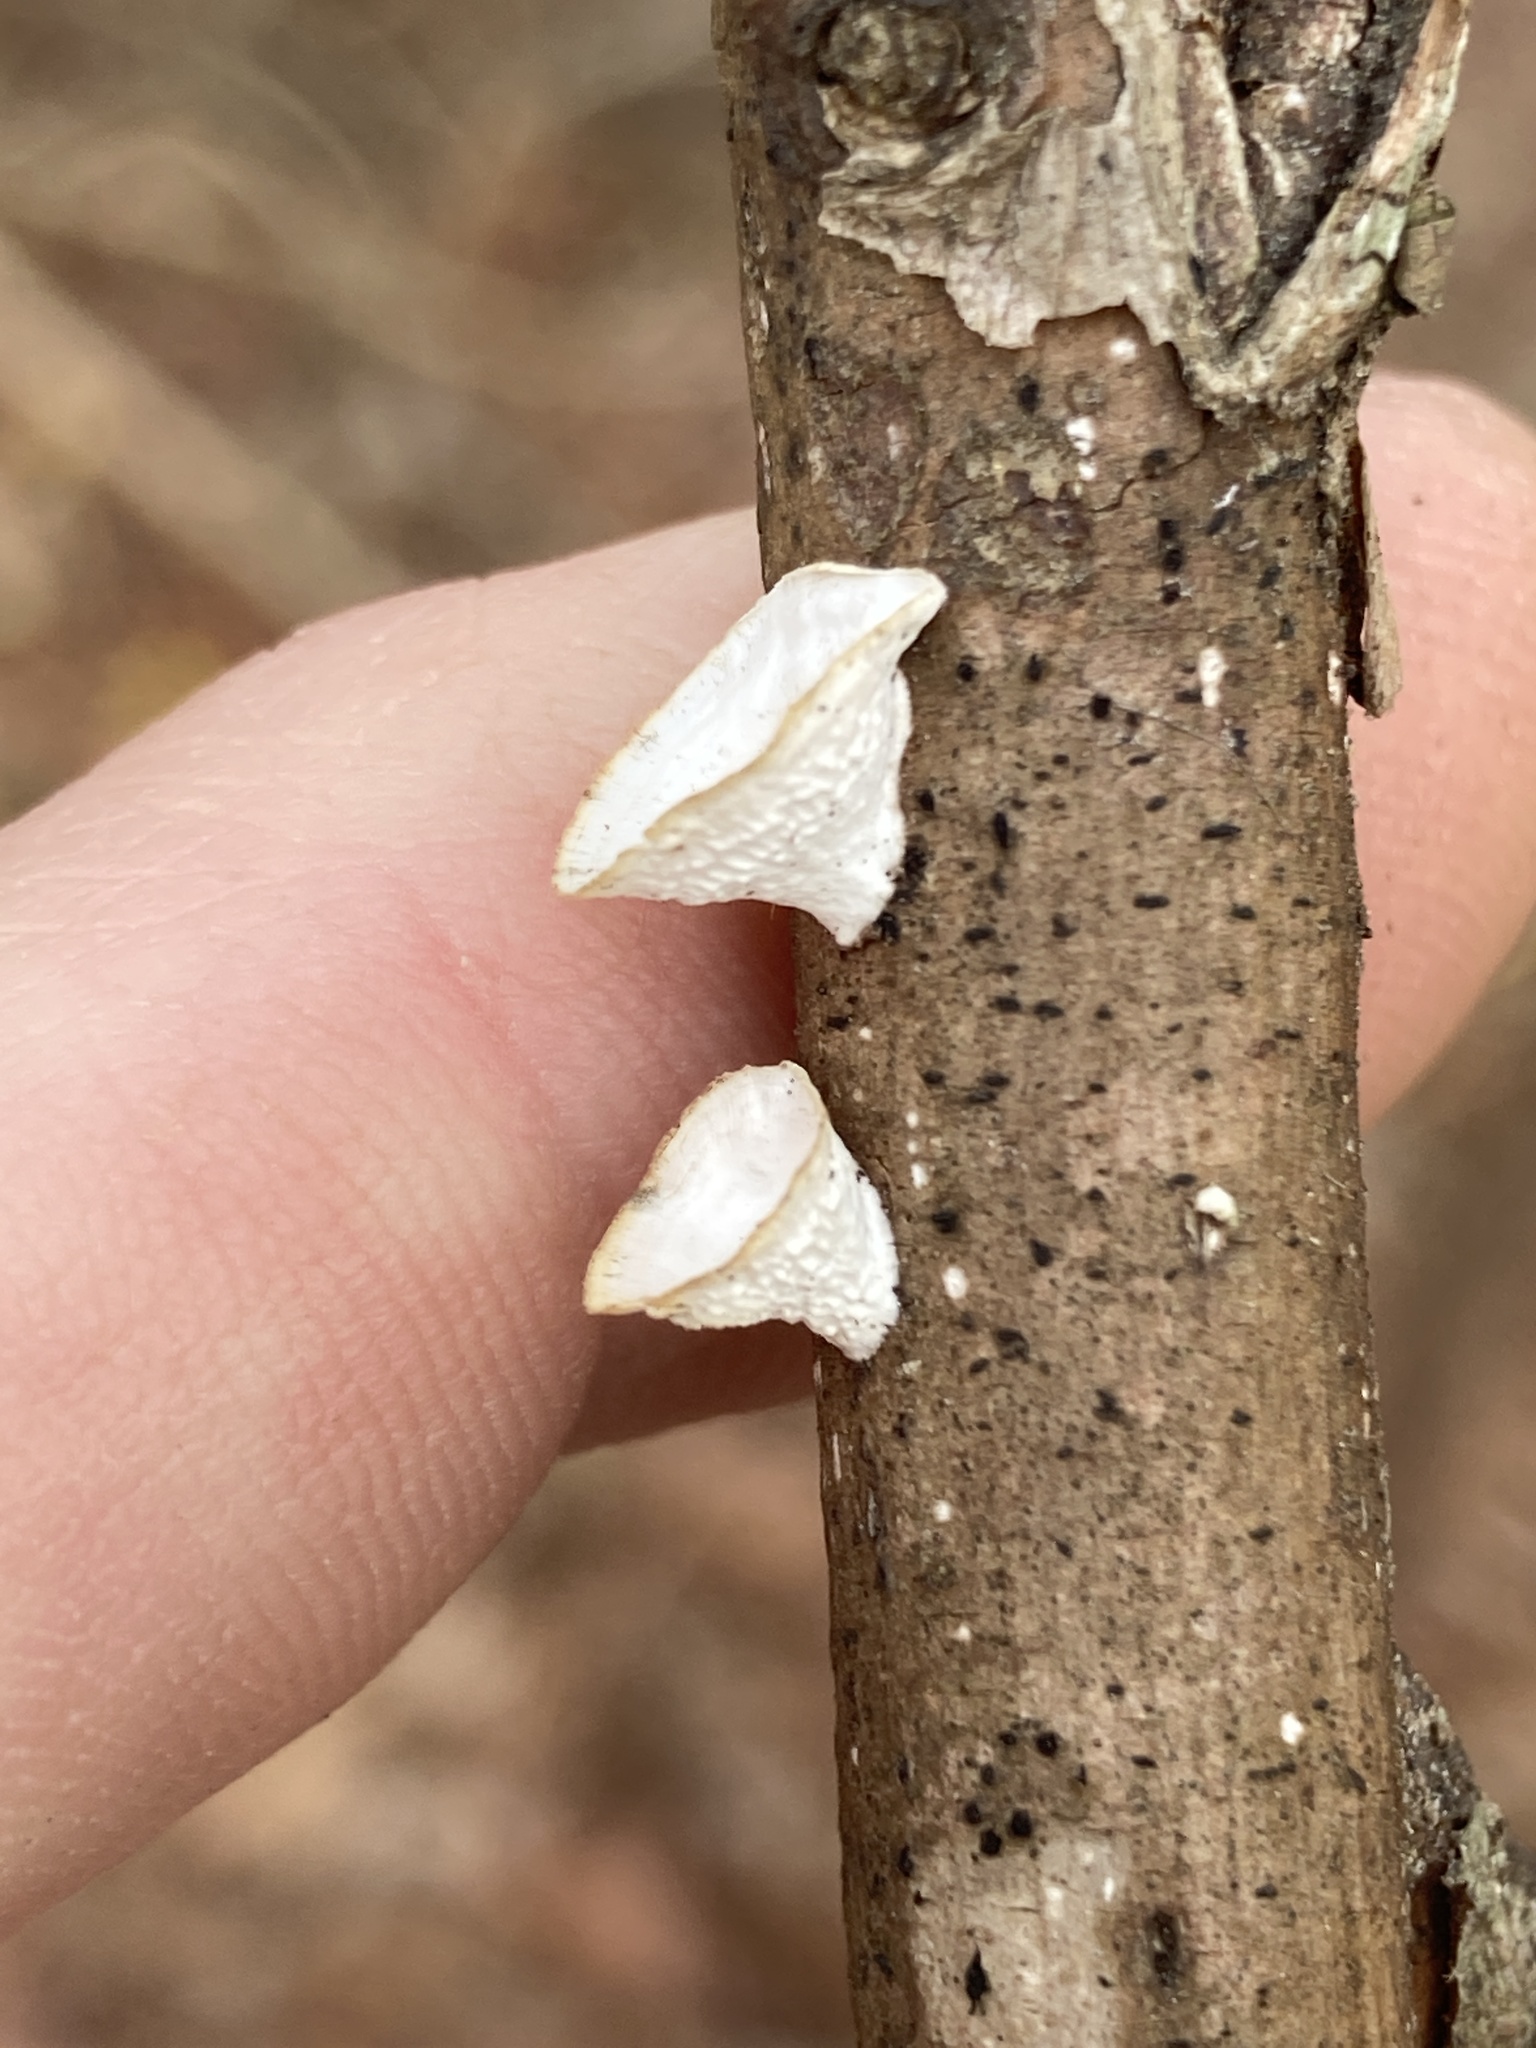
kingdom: Fungi
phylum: Basidiomycota
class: Agaricomycetes
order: Polyporales
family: Polyporaceae
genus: Poronidulus
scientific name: Poronidulus conchifer
